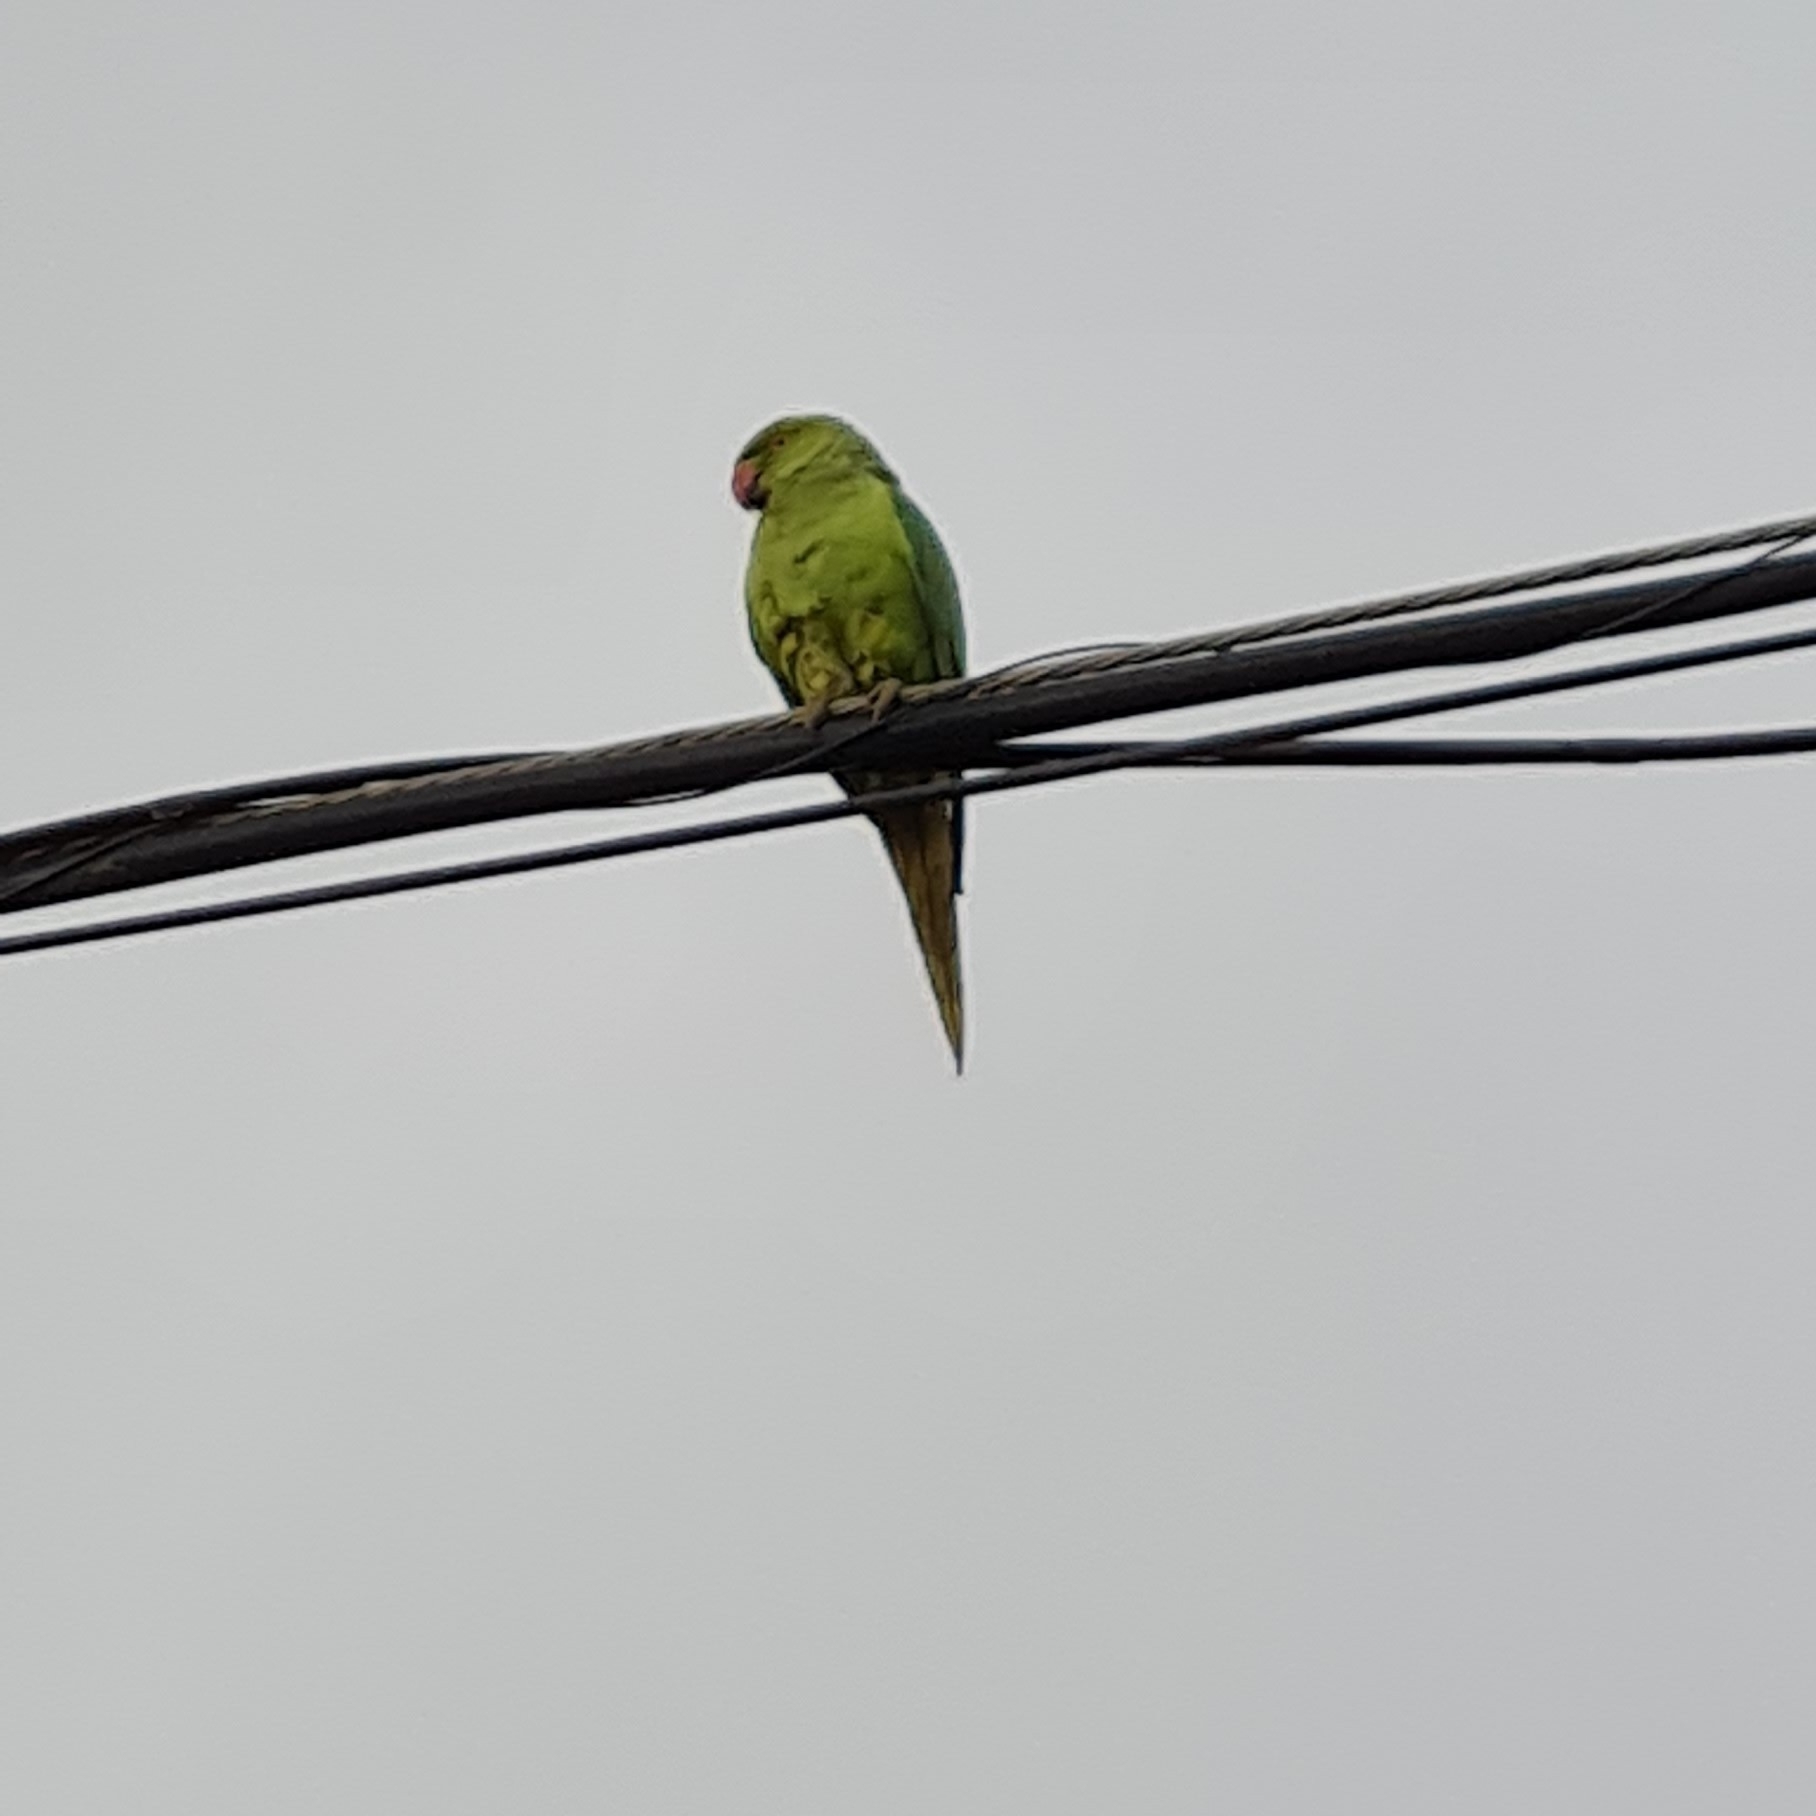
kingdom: Animalia
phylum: Chordata
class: Aves
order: Psittaciformes
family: Psittacidae
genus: Psittacula
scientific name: Psittacula krameri
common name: Rose-ringed parakeet
